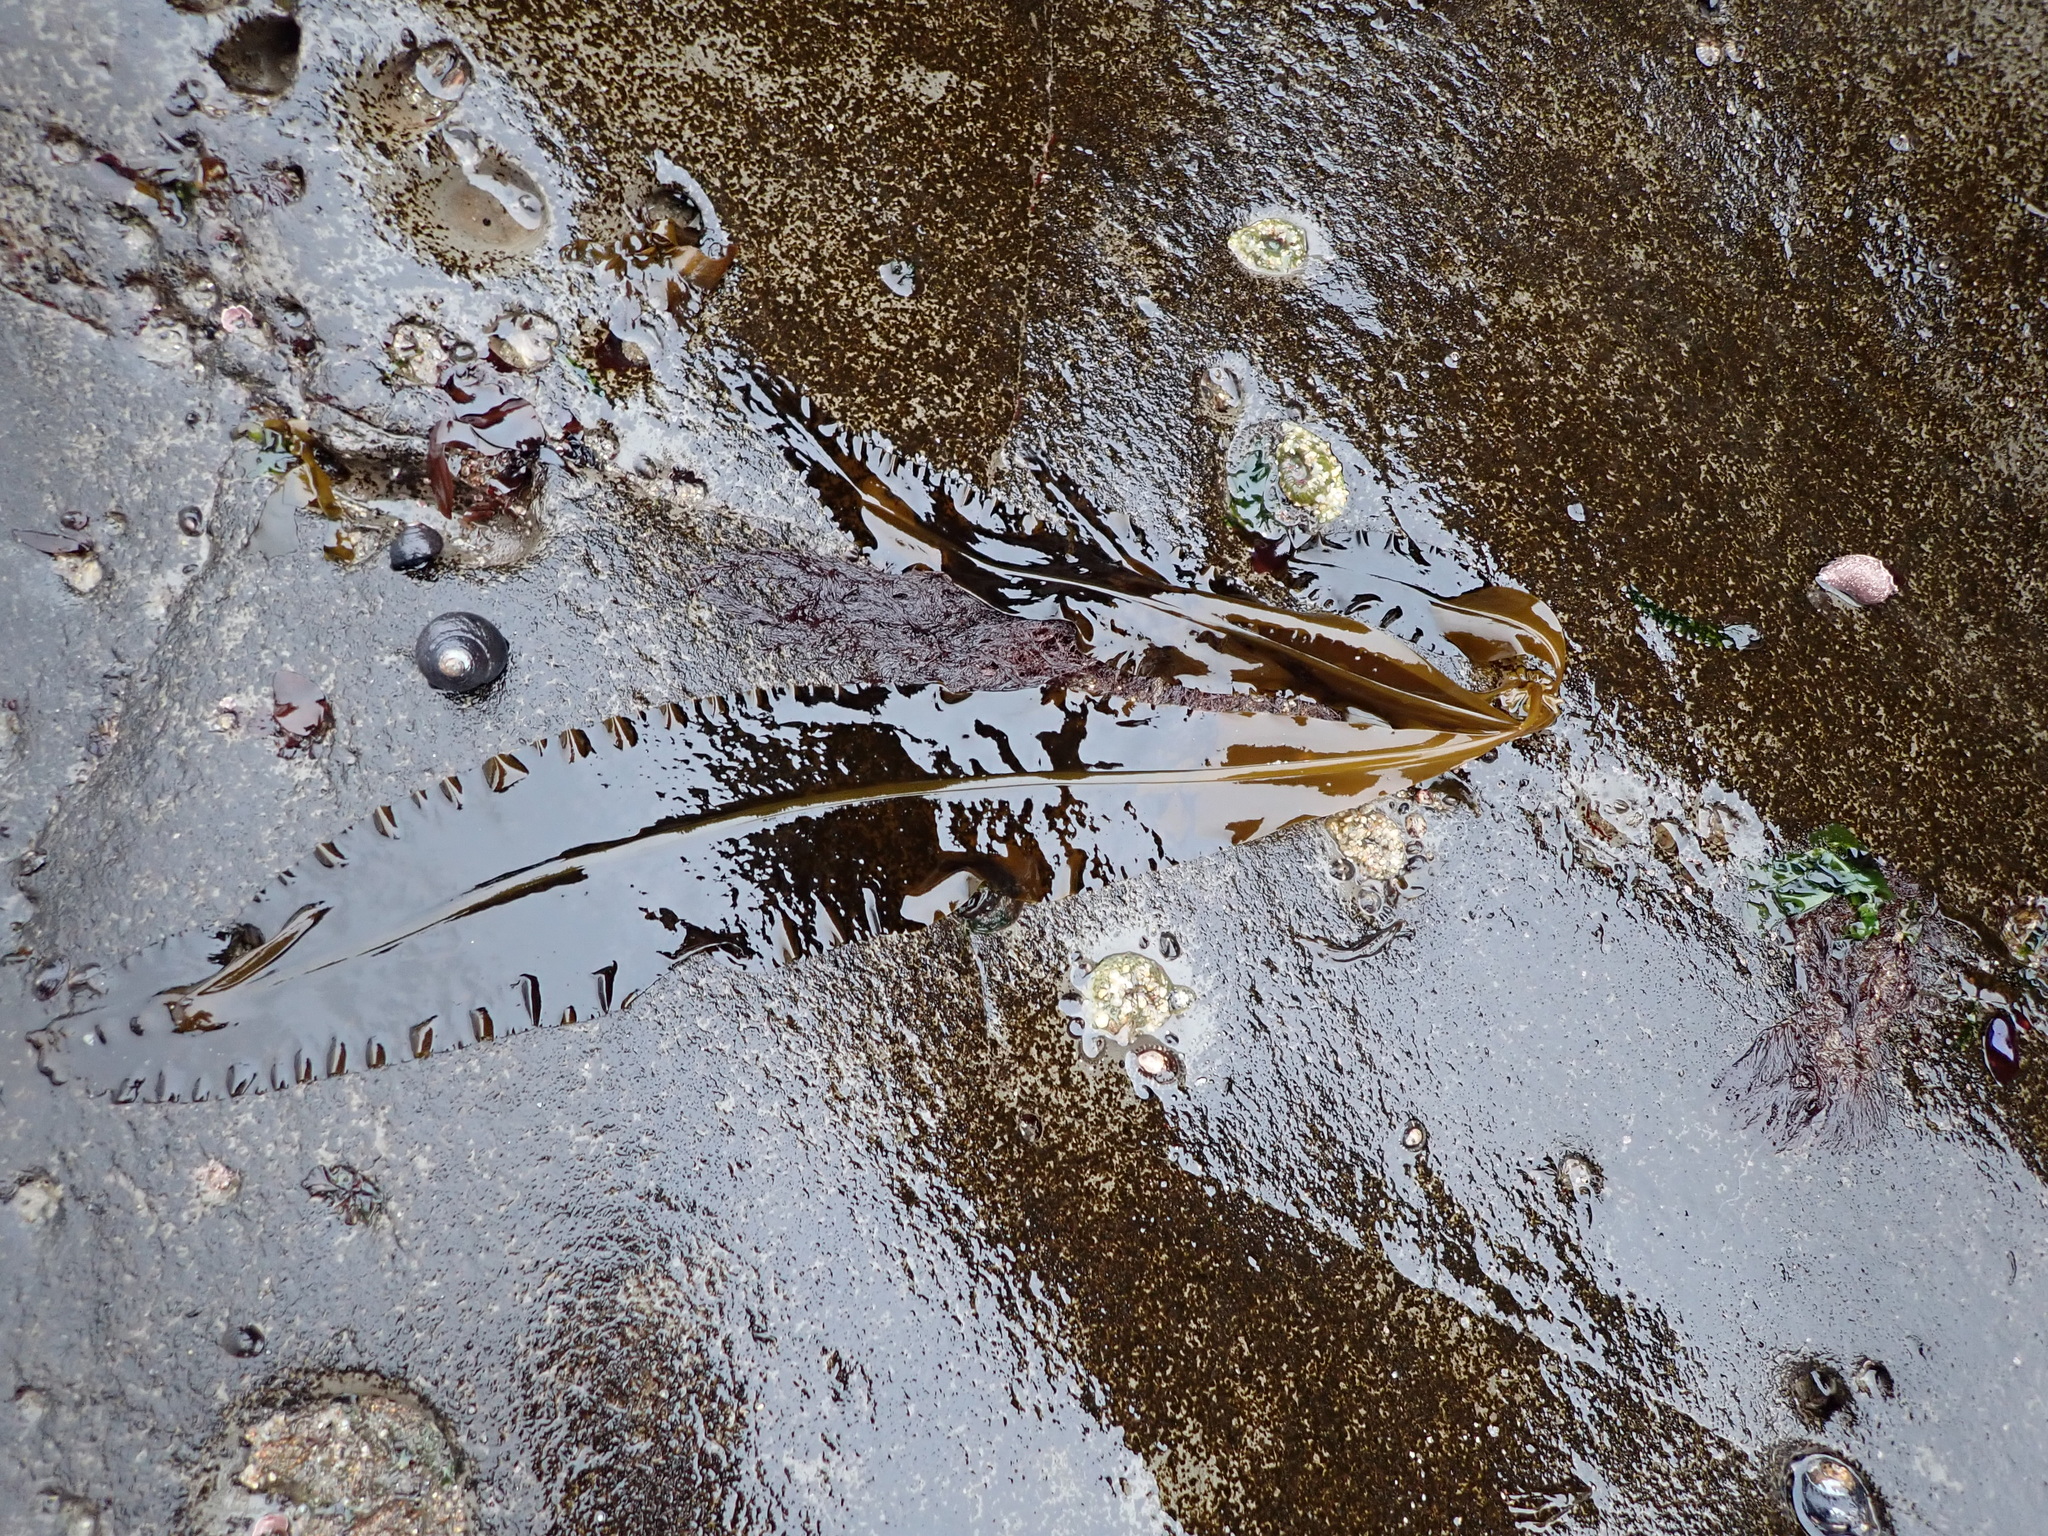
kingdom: Chromista
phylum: Ochrophyta
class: Phaeophyceae
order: Laminariales
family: Alariaceae
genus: Alaria
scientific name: Alaria marginata
